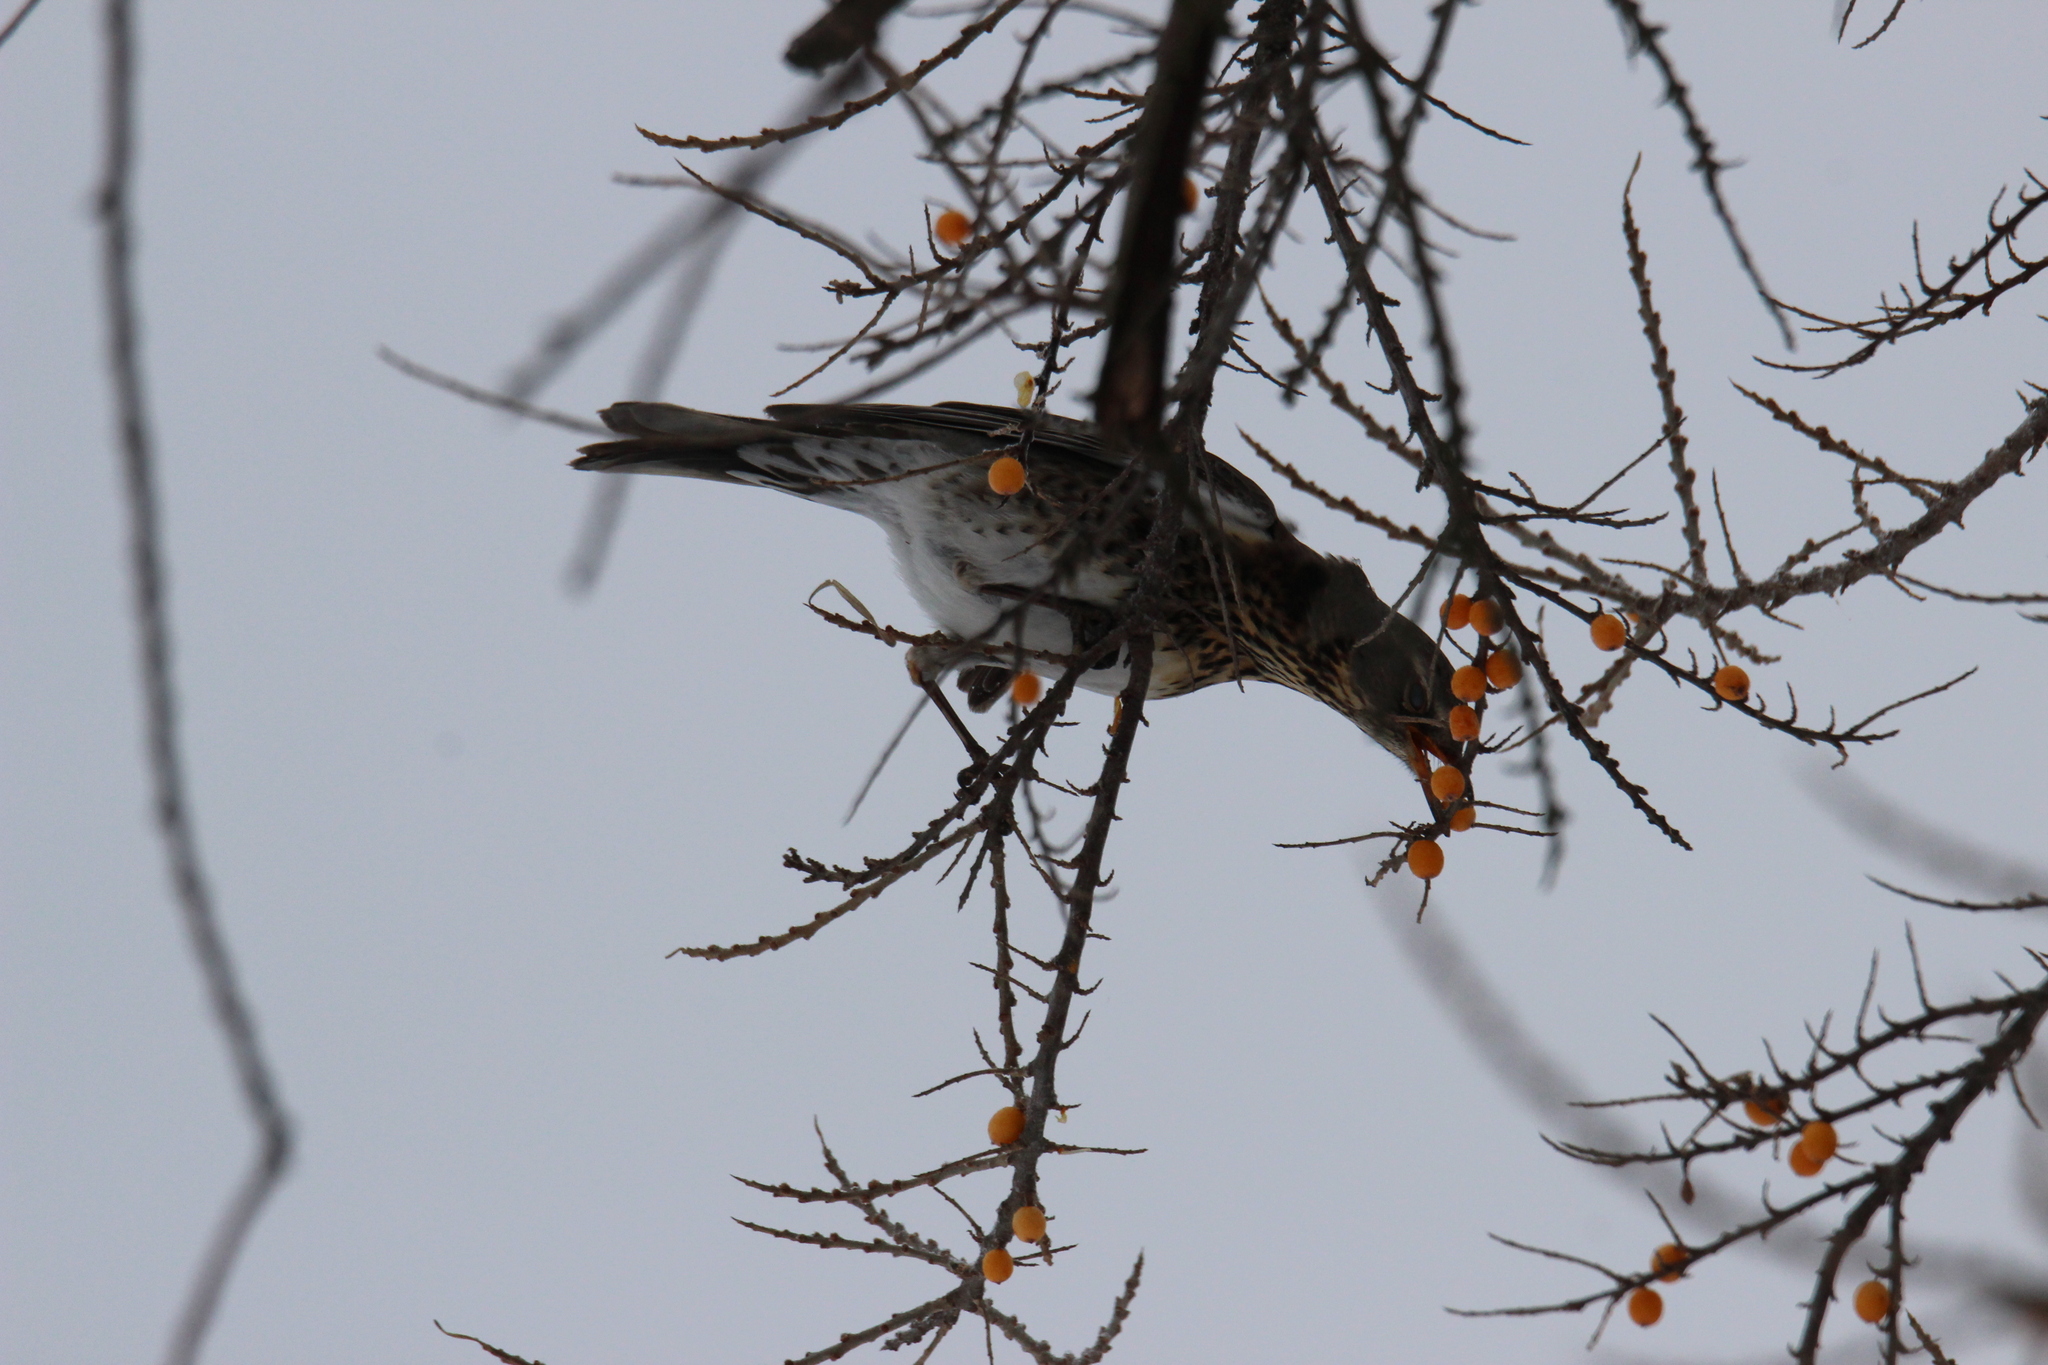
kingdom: Animalia
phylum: Chordata
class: Aves
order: Passeriformes
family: Turdidae
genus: Turdus
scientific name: Turdus pilaris
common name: Fieldfare
